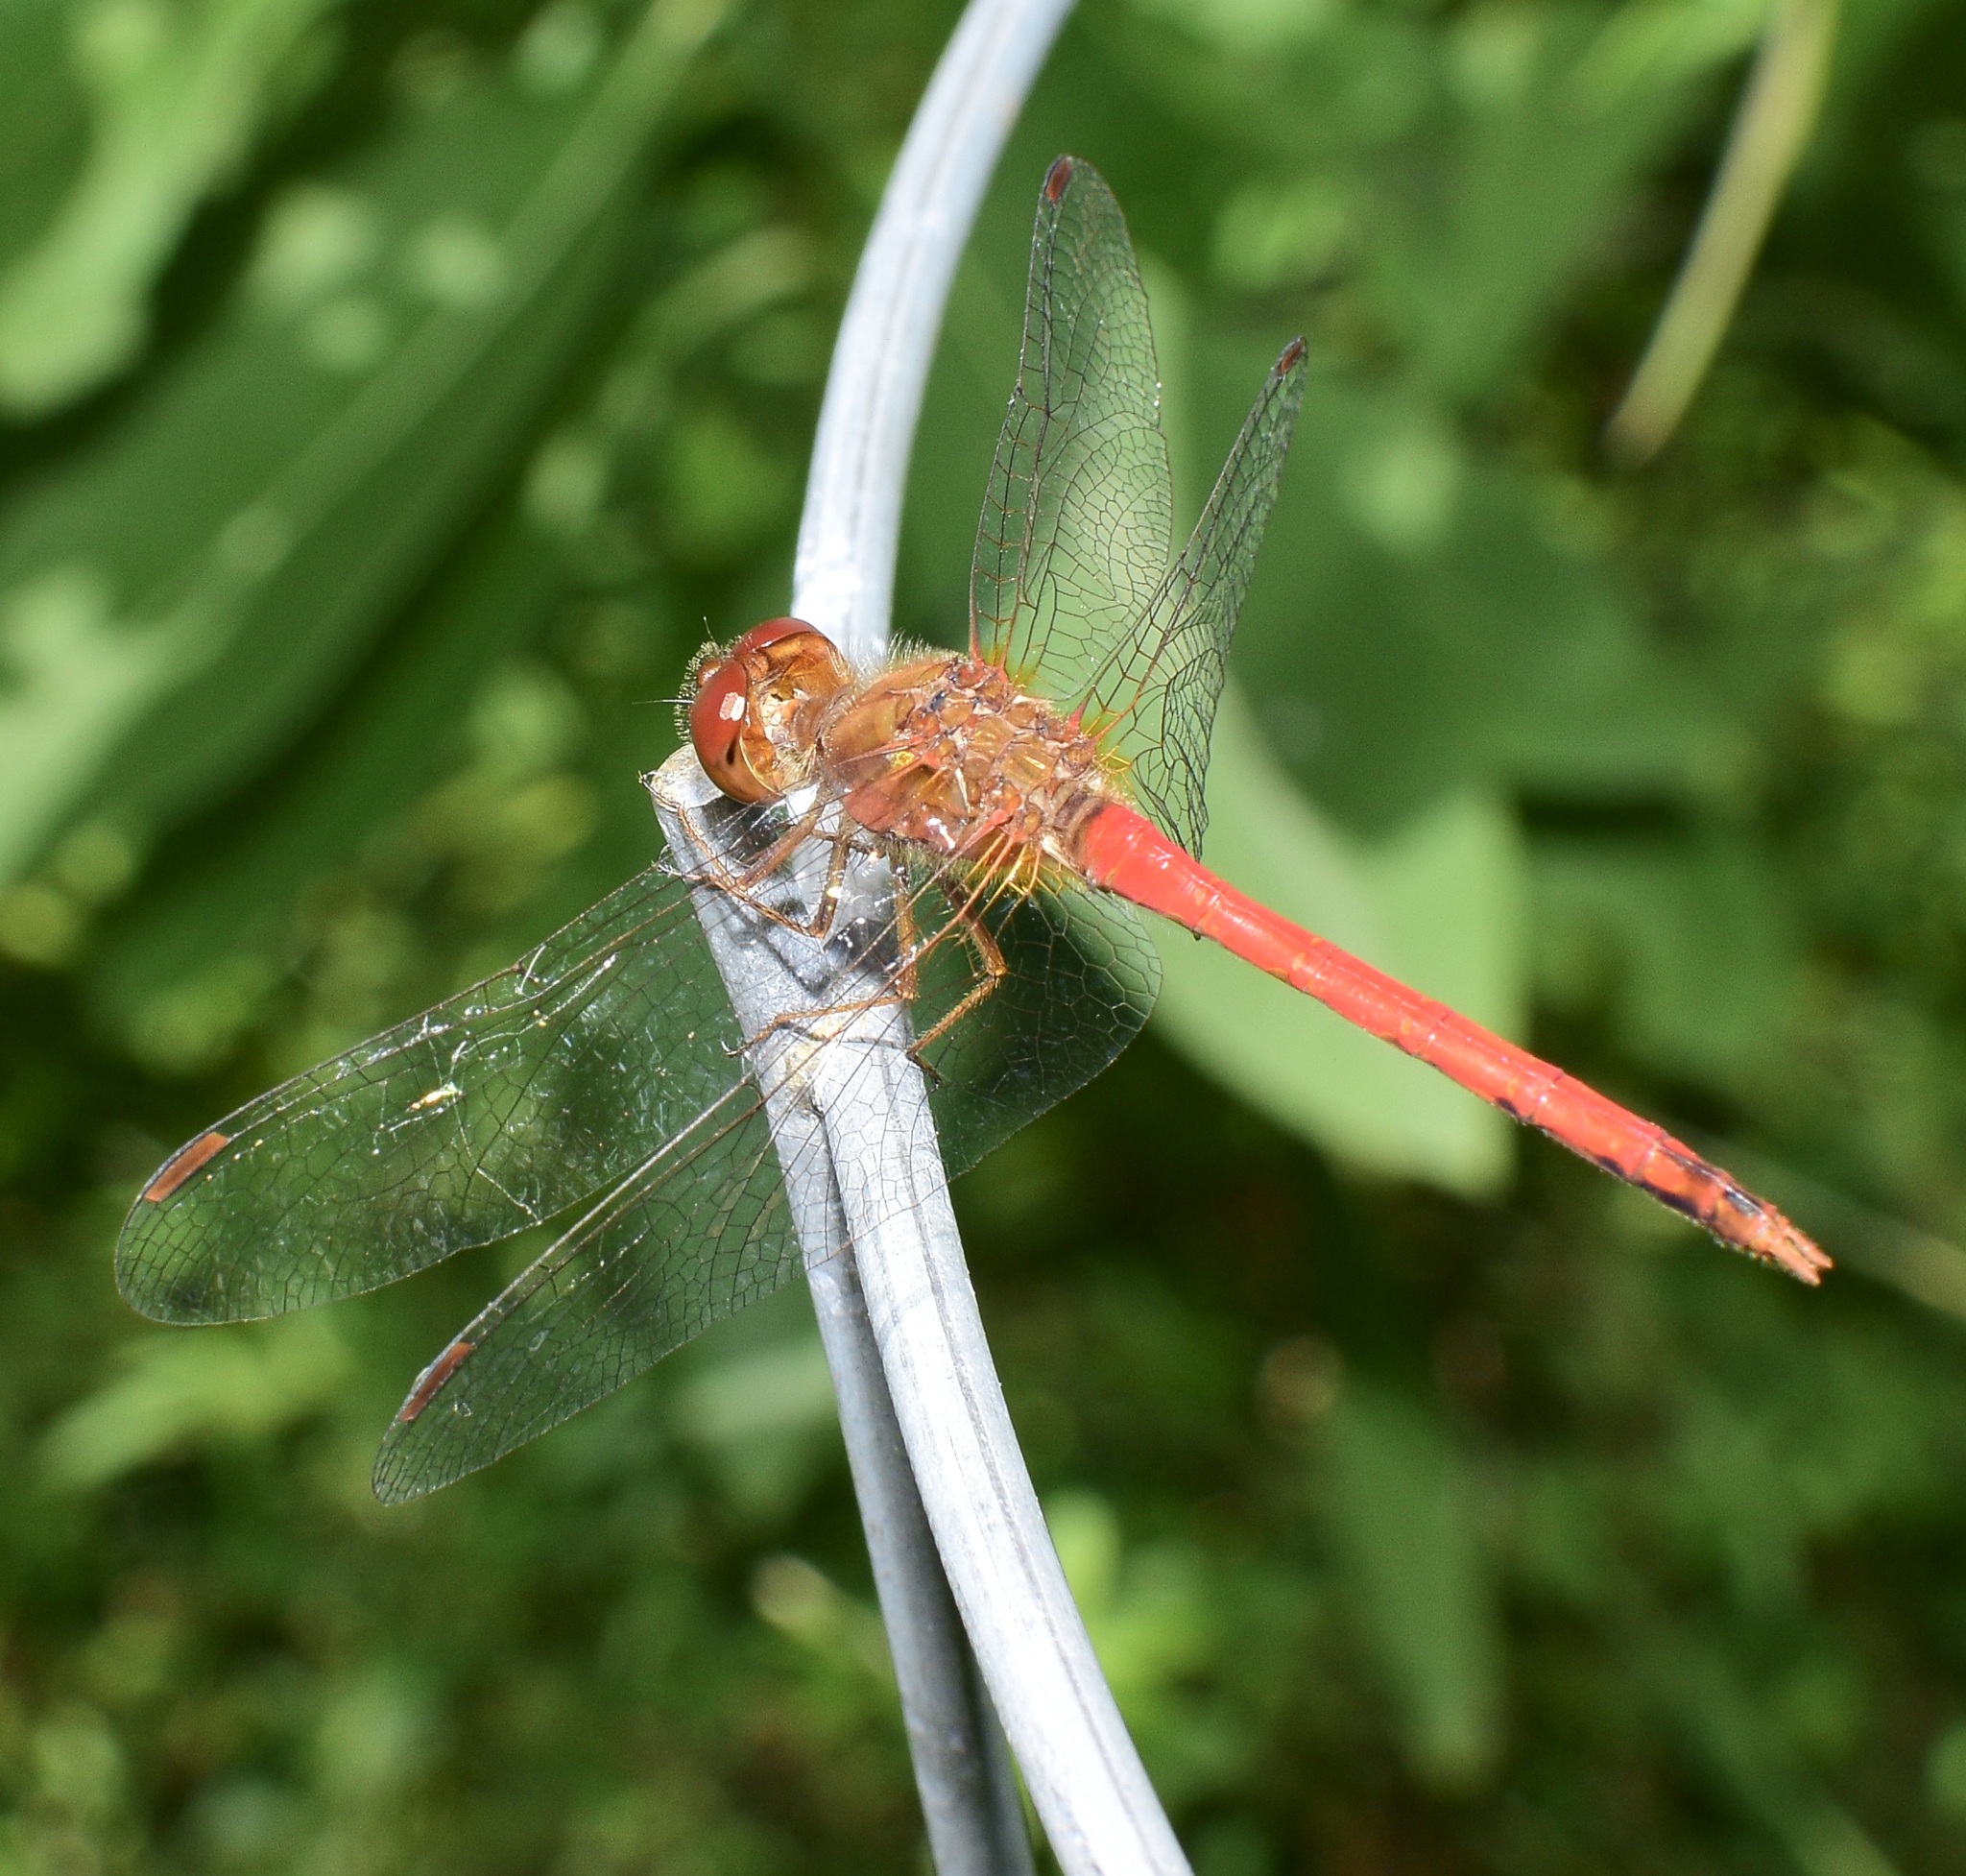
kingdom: Animalia
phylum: Arthropoda
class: Insecta
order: Odonata
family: Libellulidae
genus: Sympetrum
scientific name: Sympetrum vicinum
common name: Autumn meadowhawk
